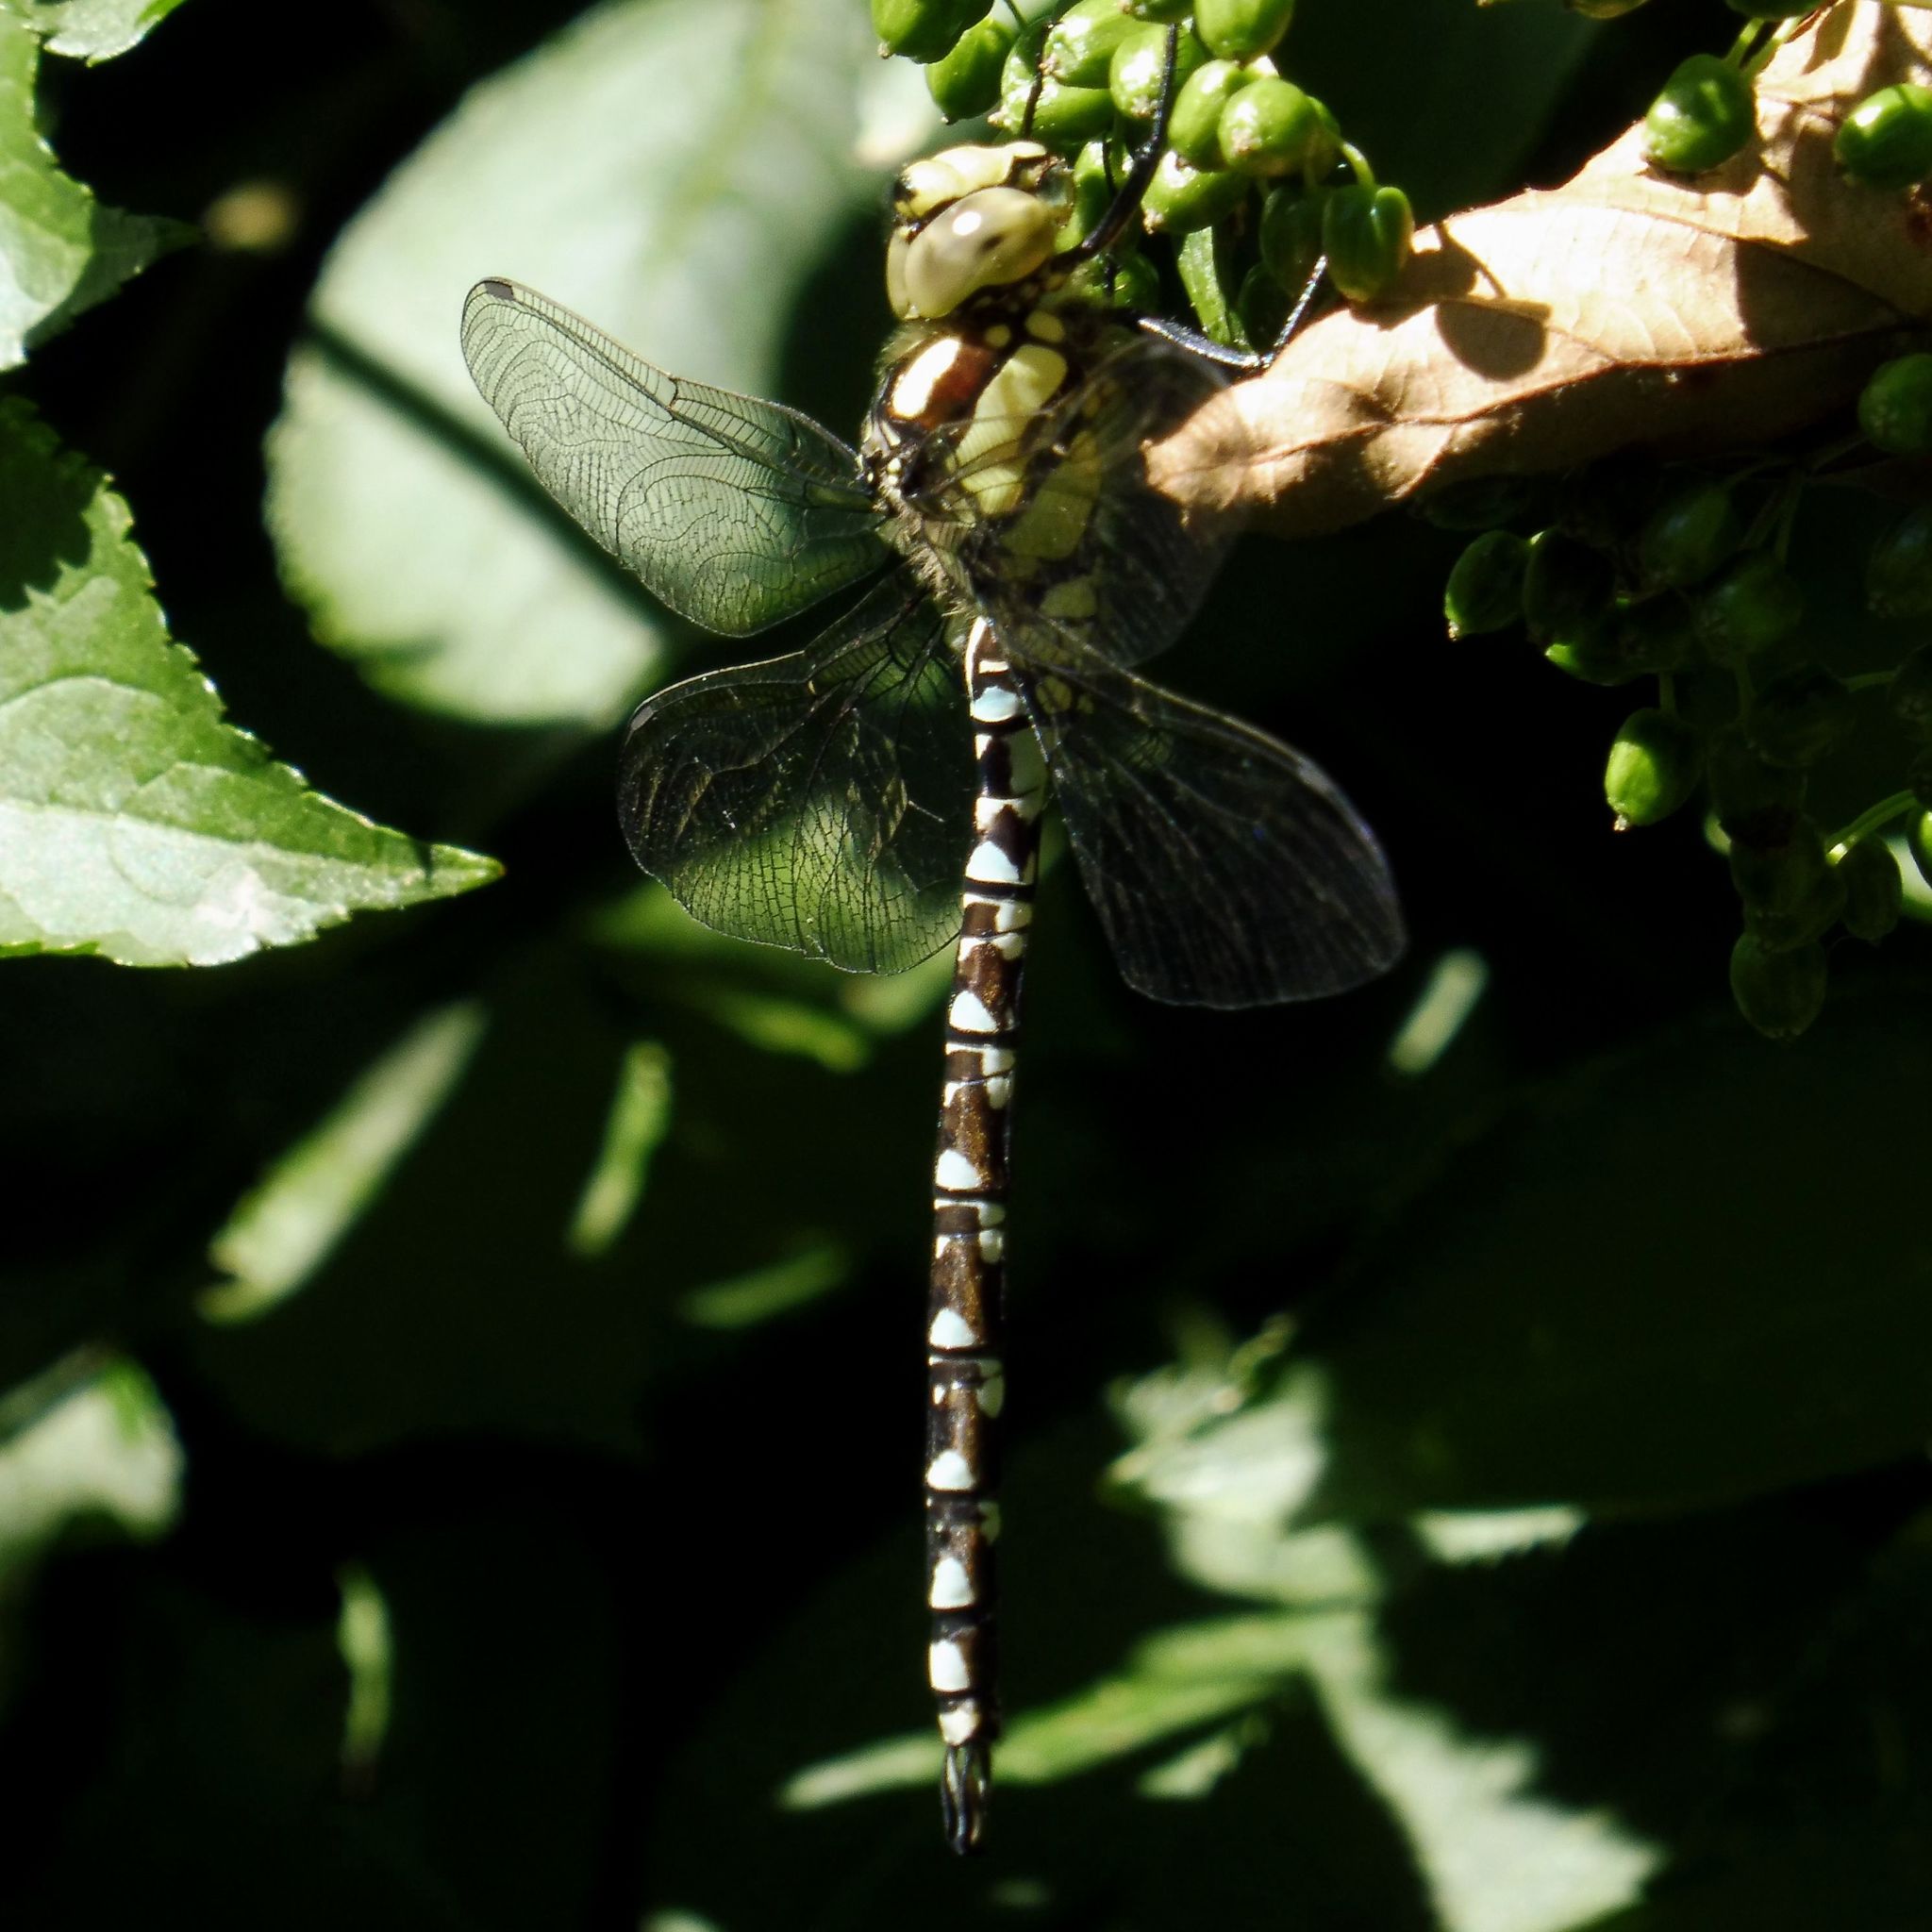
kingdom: Animalia
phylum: Arthropoda
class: Insecta
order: Odonata
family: Aeshnidae
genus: Aeshna
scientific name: Aeshna cyanea
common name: Southern hawker
